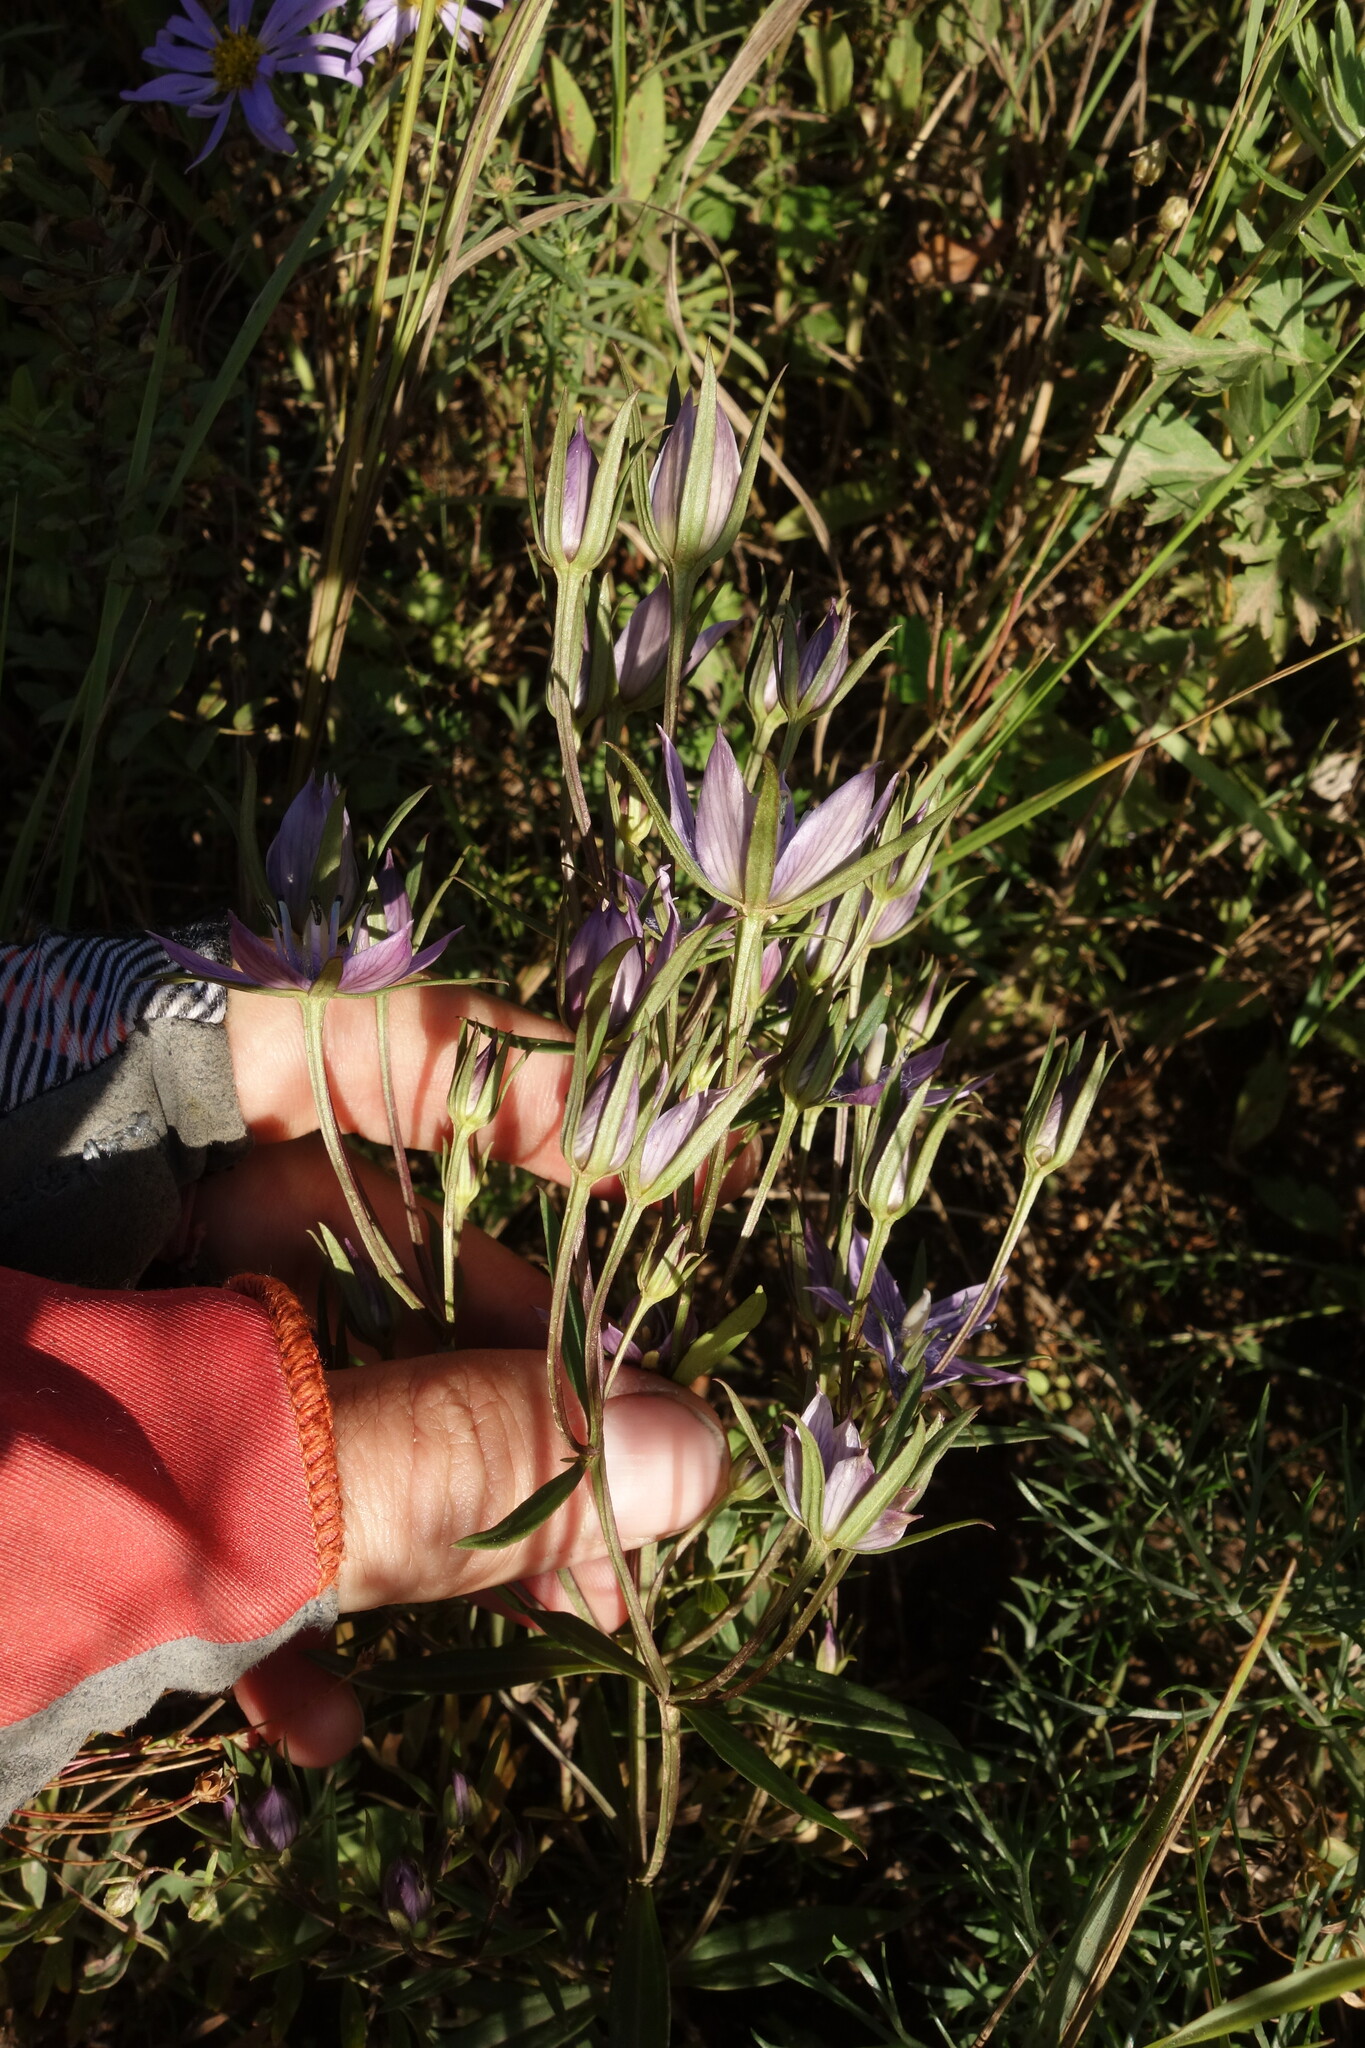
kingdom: Plantae
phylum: Tracheophyta
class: Magnoliopsida
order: Gentianales
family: Gentianaceae
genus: Lomatogonium
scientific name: Lomatogonium rotatum
